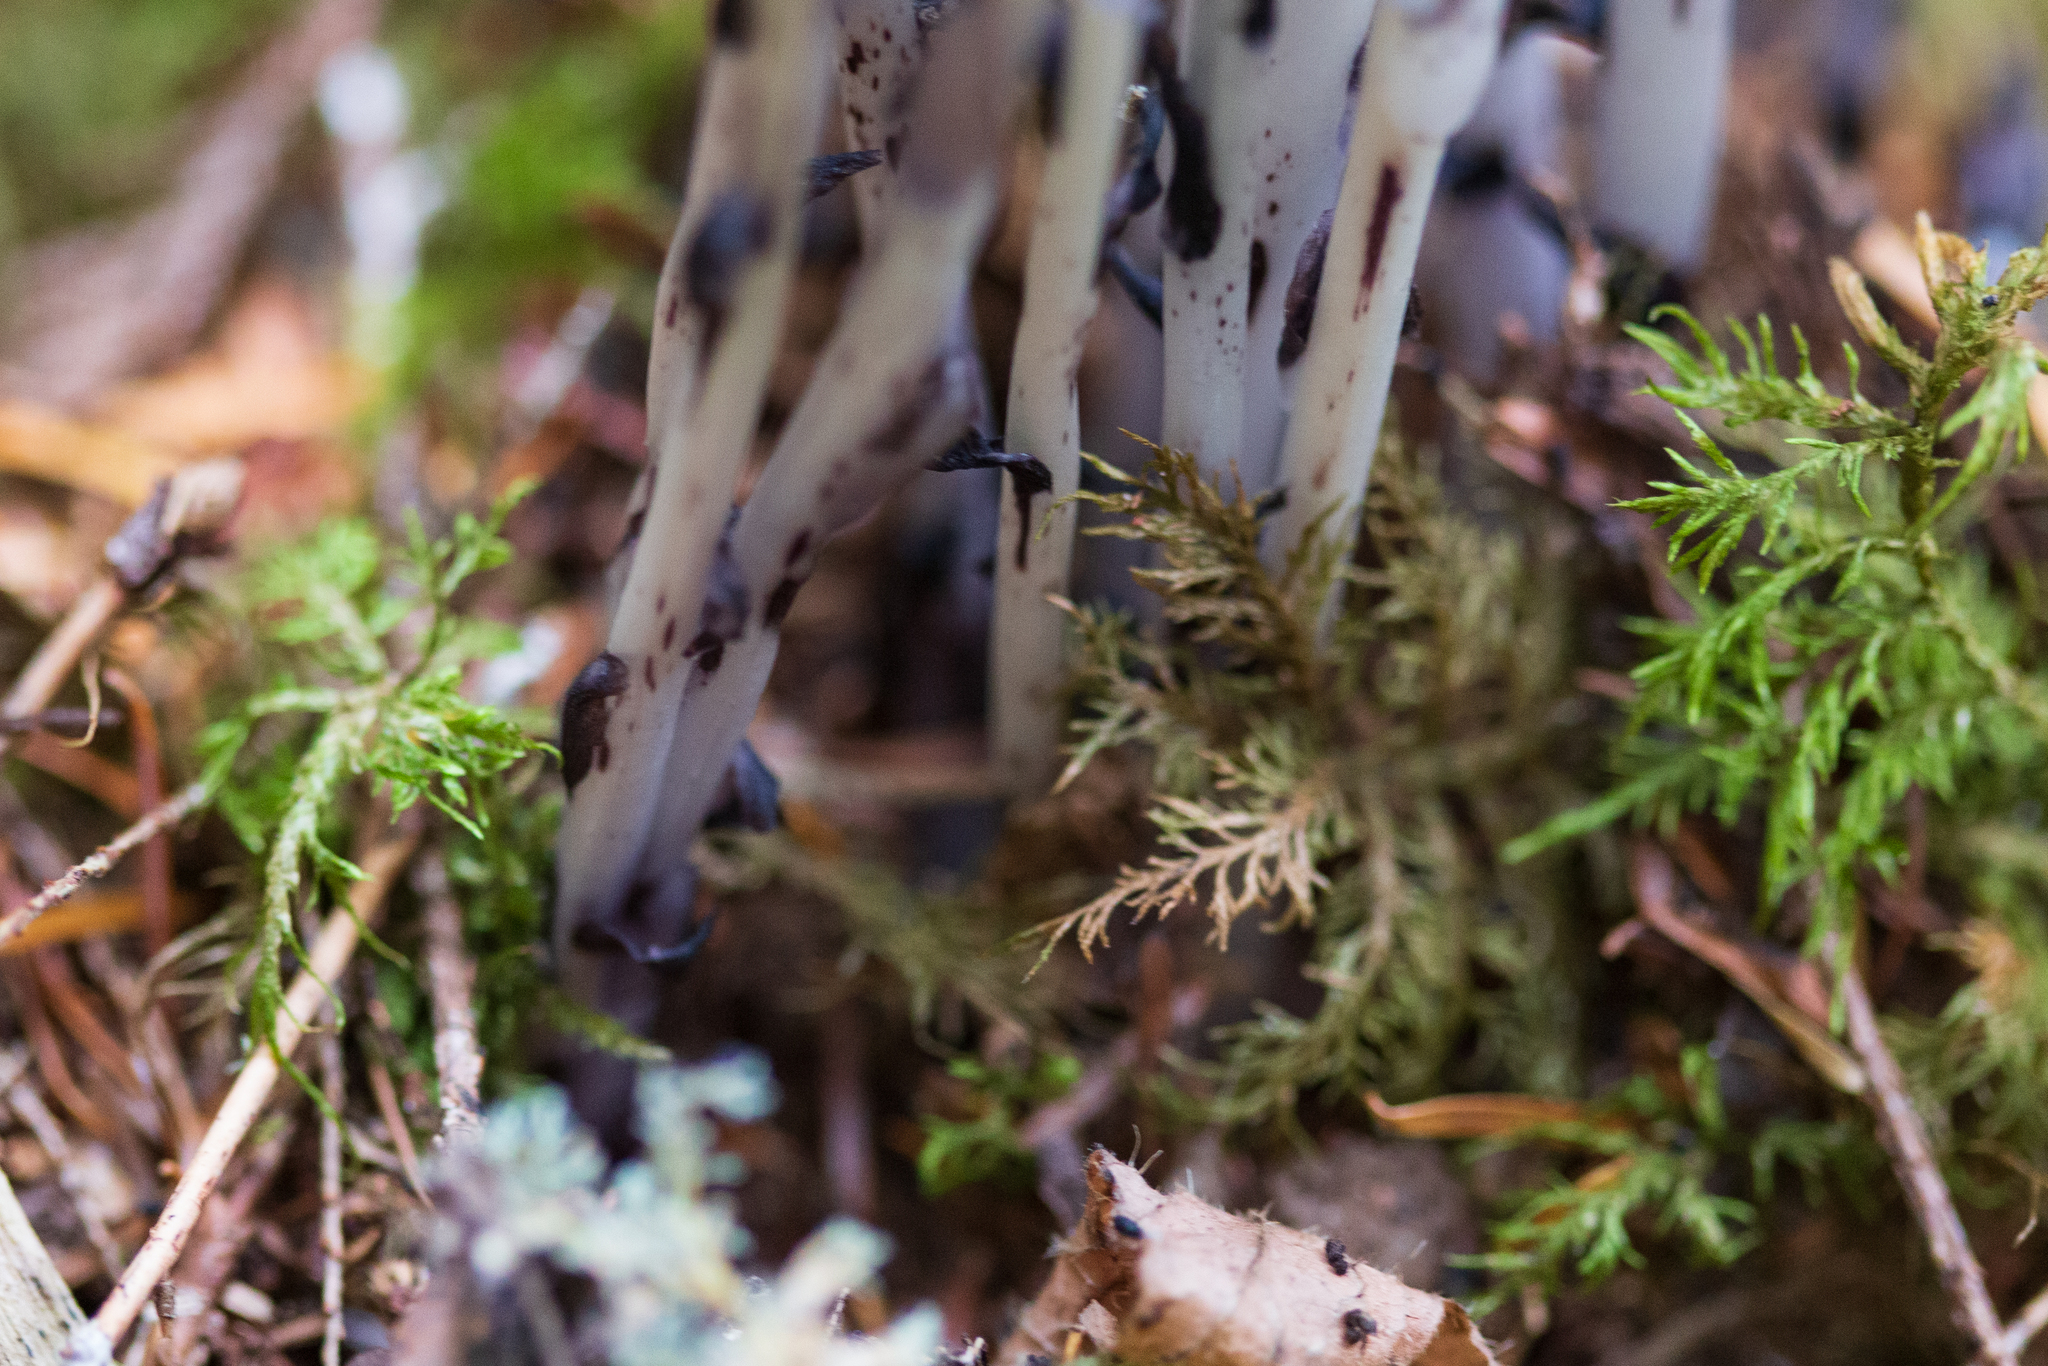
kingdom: Plantae
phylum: Tracheophyta
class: Magnoliopsida
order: Ericales
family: Ericaceae
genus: Monotropa
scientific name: Monotropa uniflora
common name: Convulsion root
